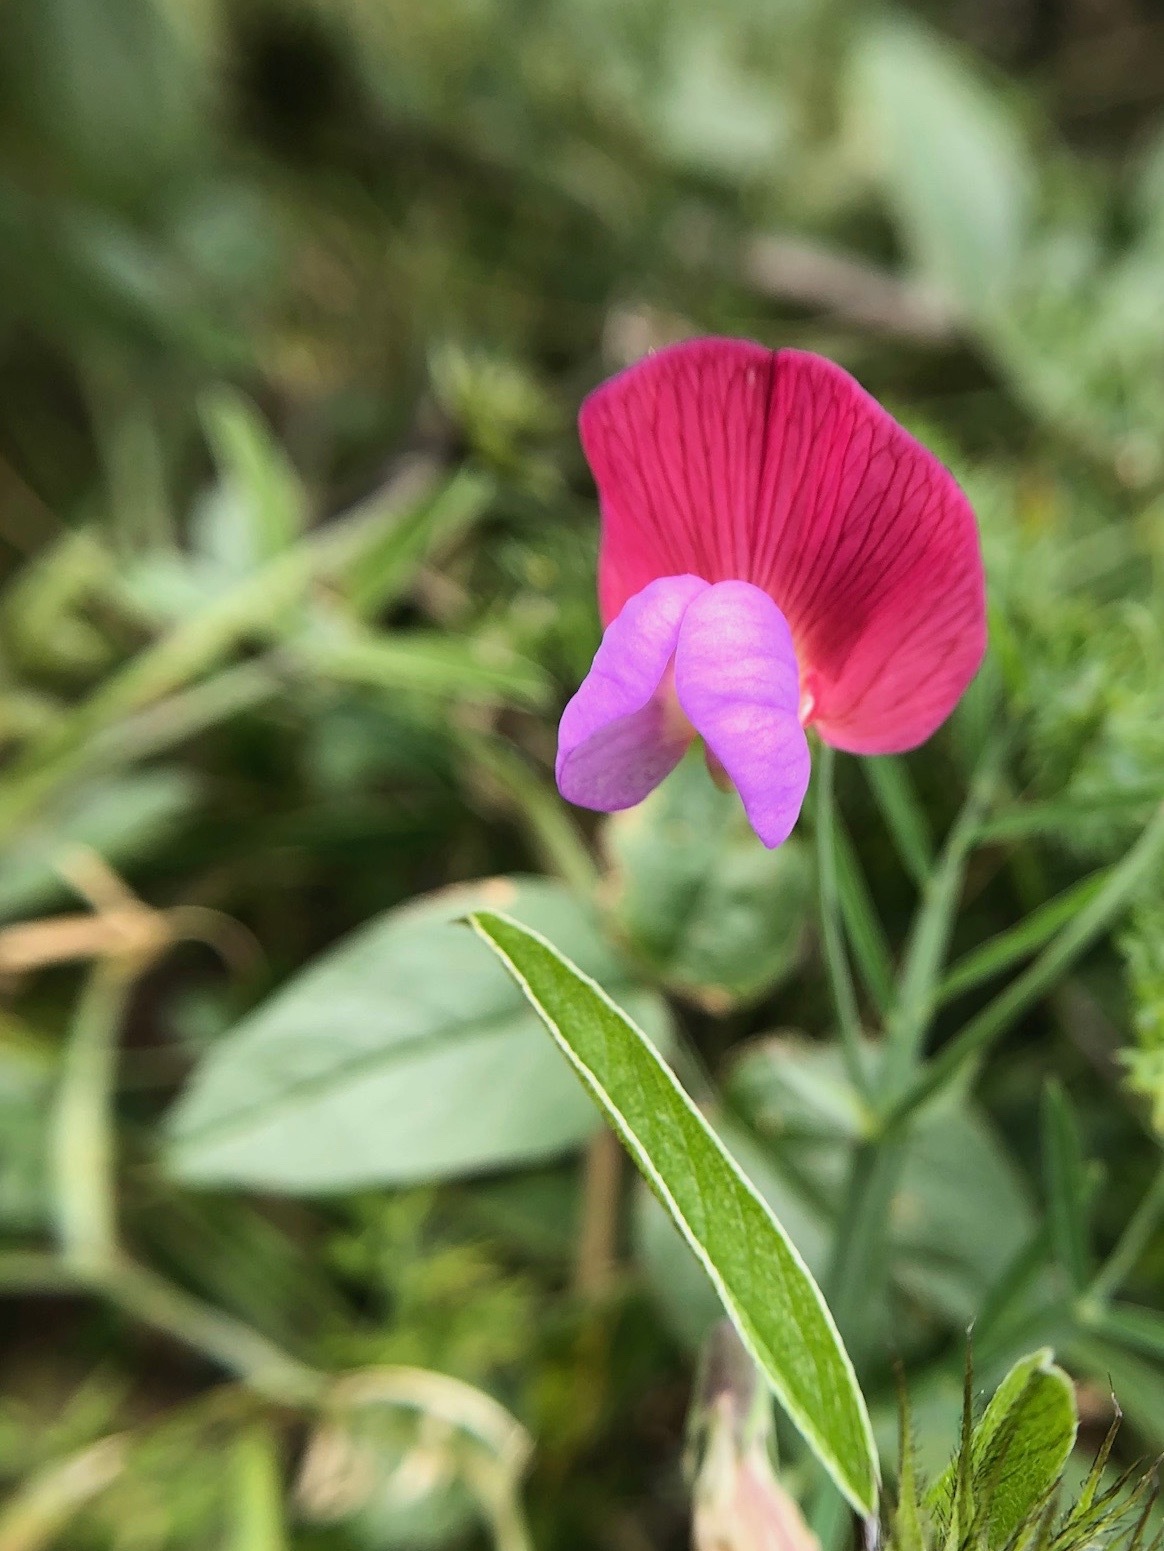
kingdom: Plantae
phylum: Tracheophyta
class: Magnoliopsida
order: Fabales
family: Fabaceae
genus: Lathyrus
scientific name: Lathyrus clymenum
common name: Spanish vetchling
